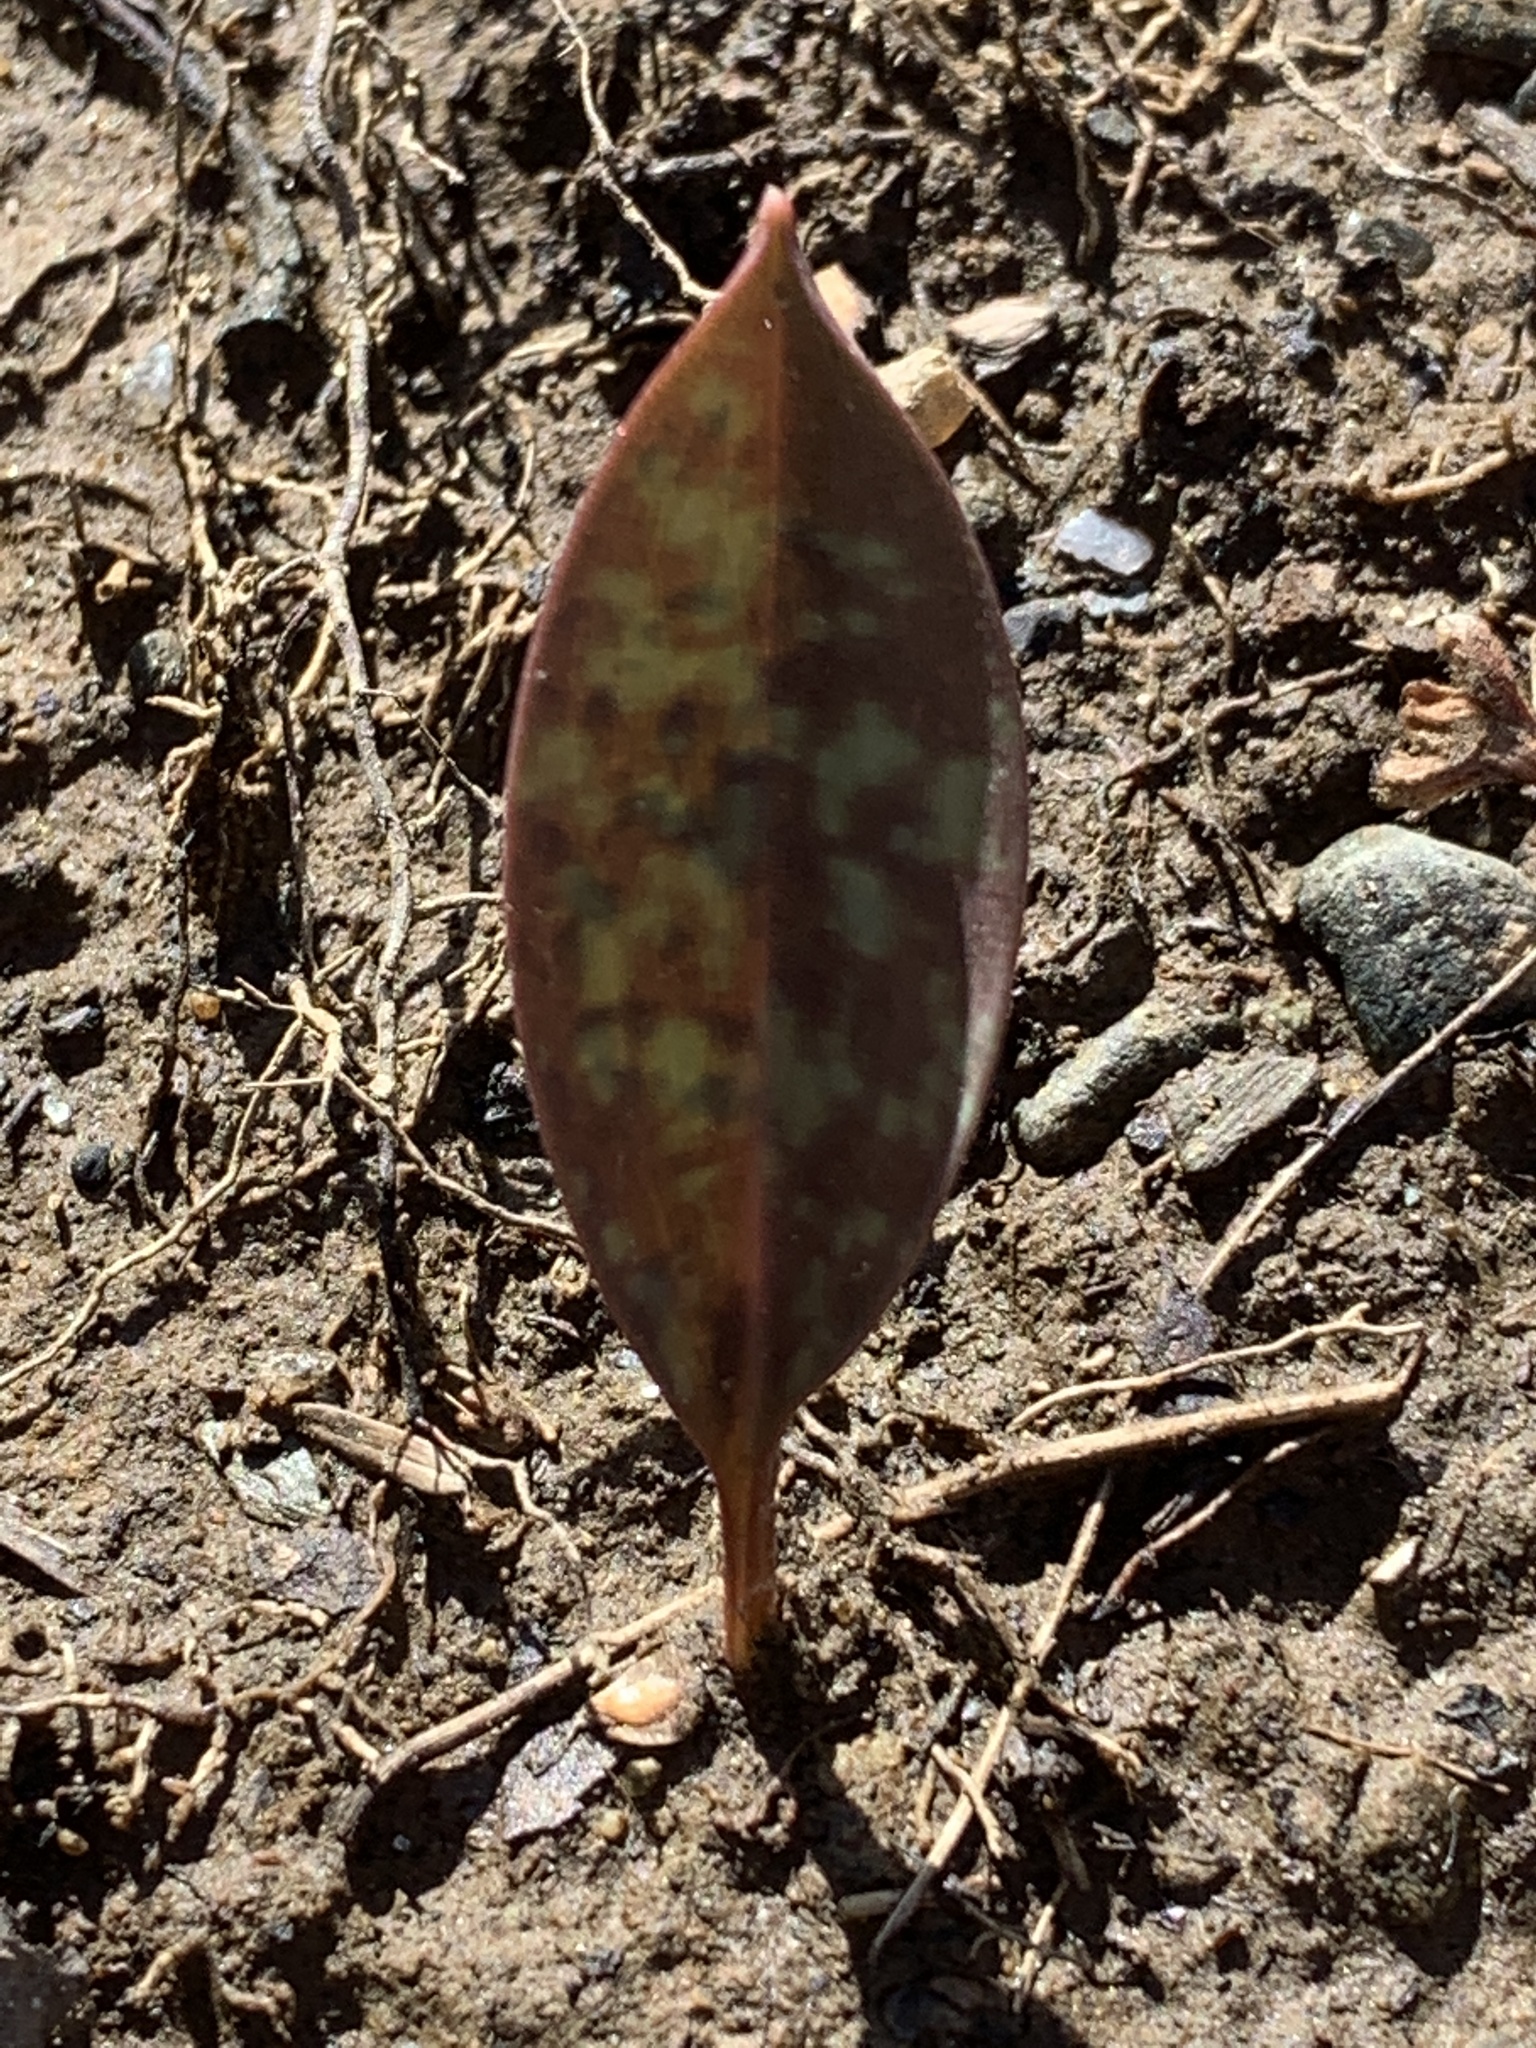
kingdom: Plantae
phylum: Tracheophyta
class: Liliopsida
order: Liliales
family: Liliaceae
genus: Erythronium
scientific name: Erythronium americanum
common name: Yellow adder's-tongue
